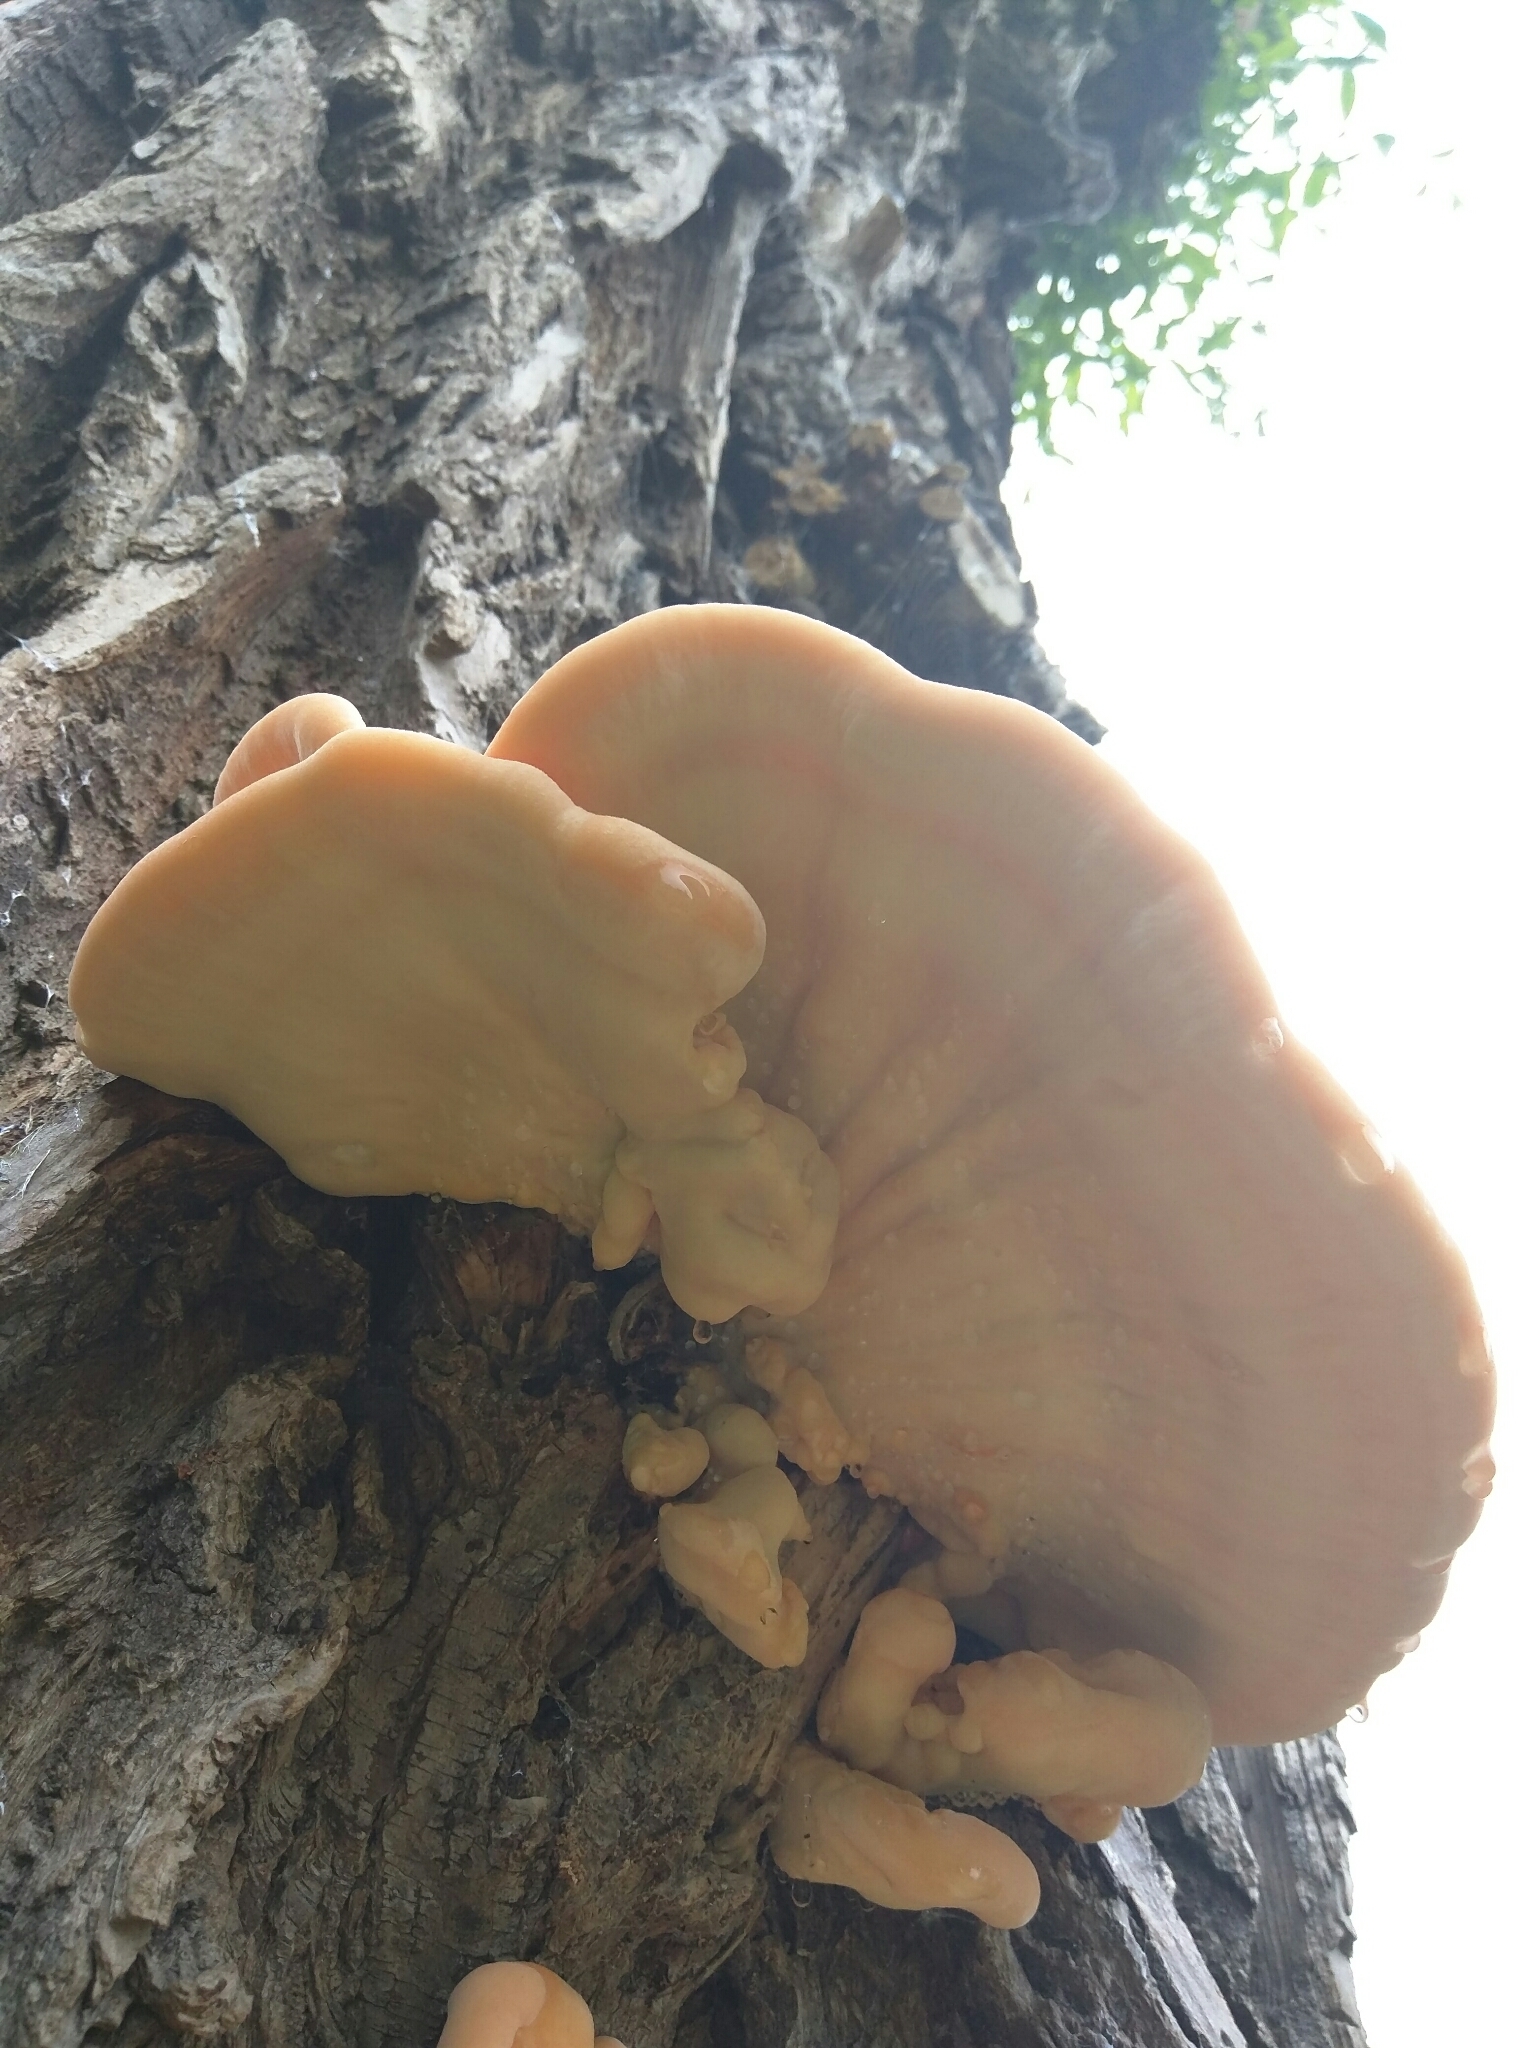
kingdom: Fungi
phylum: Basidiomycota
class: Agaricomycetes
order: Polyporales
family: Laetiporaceae
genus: Laetiporus
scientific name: Laetiporus sulphureus
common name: Chicken of the woods
